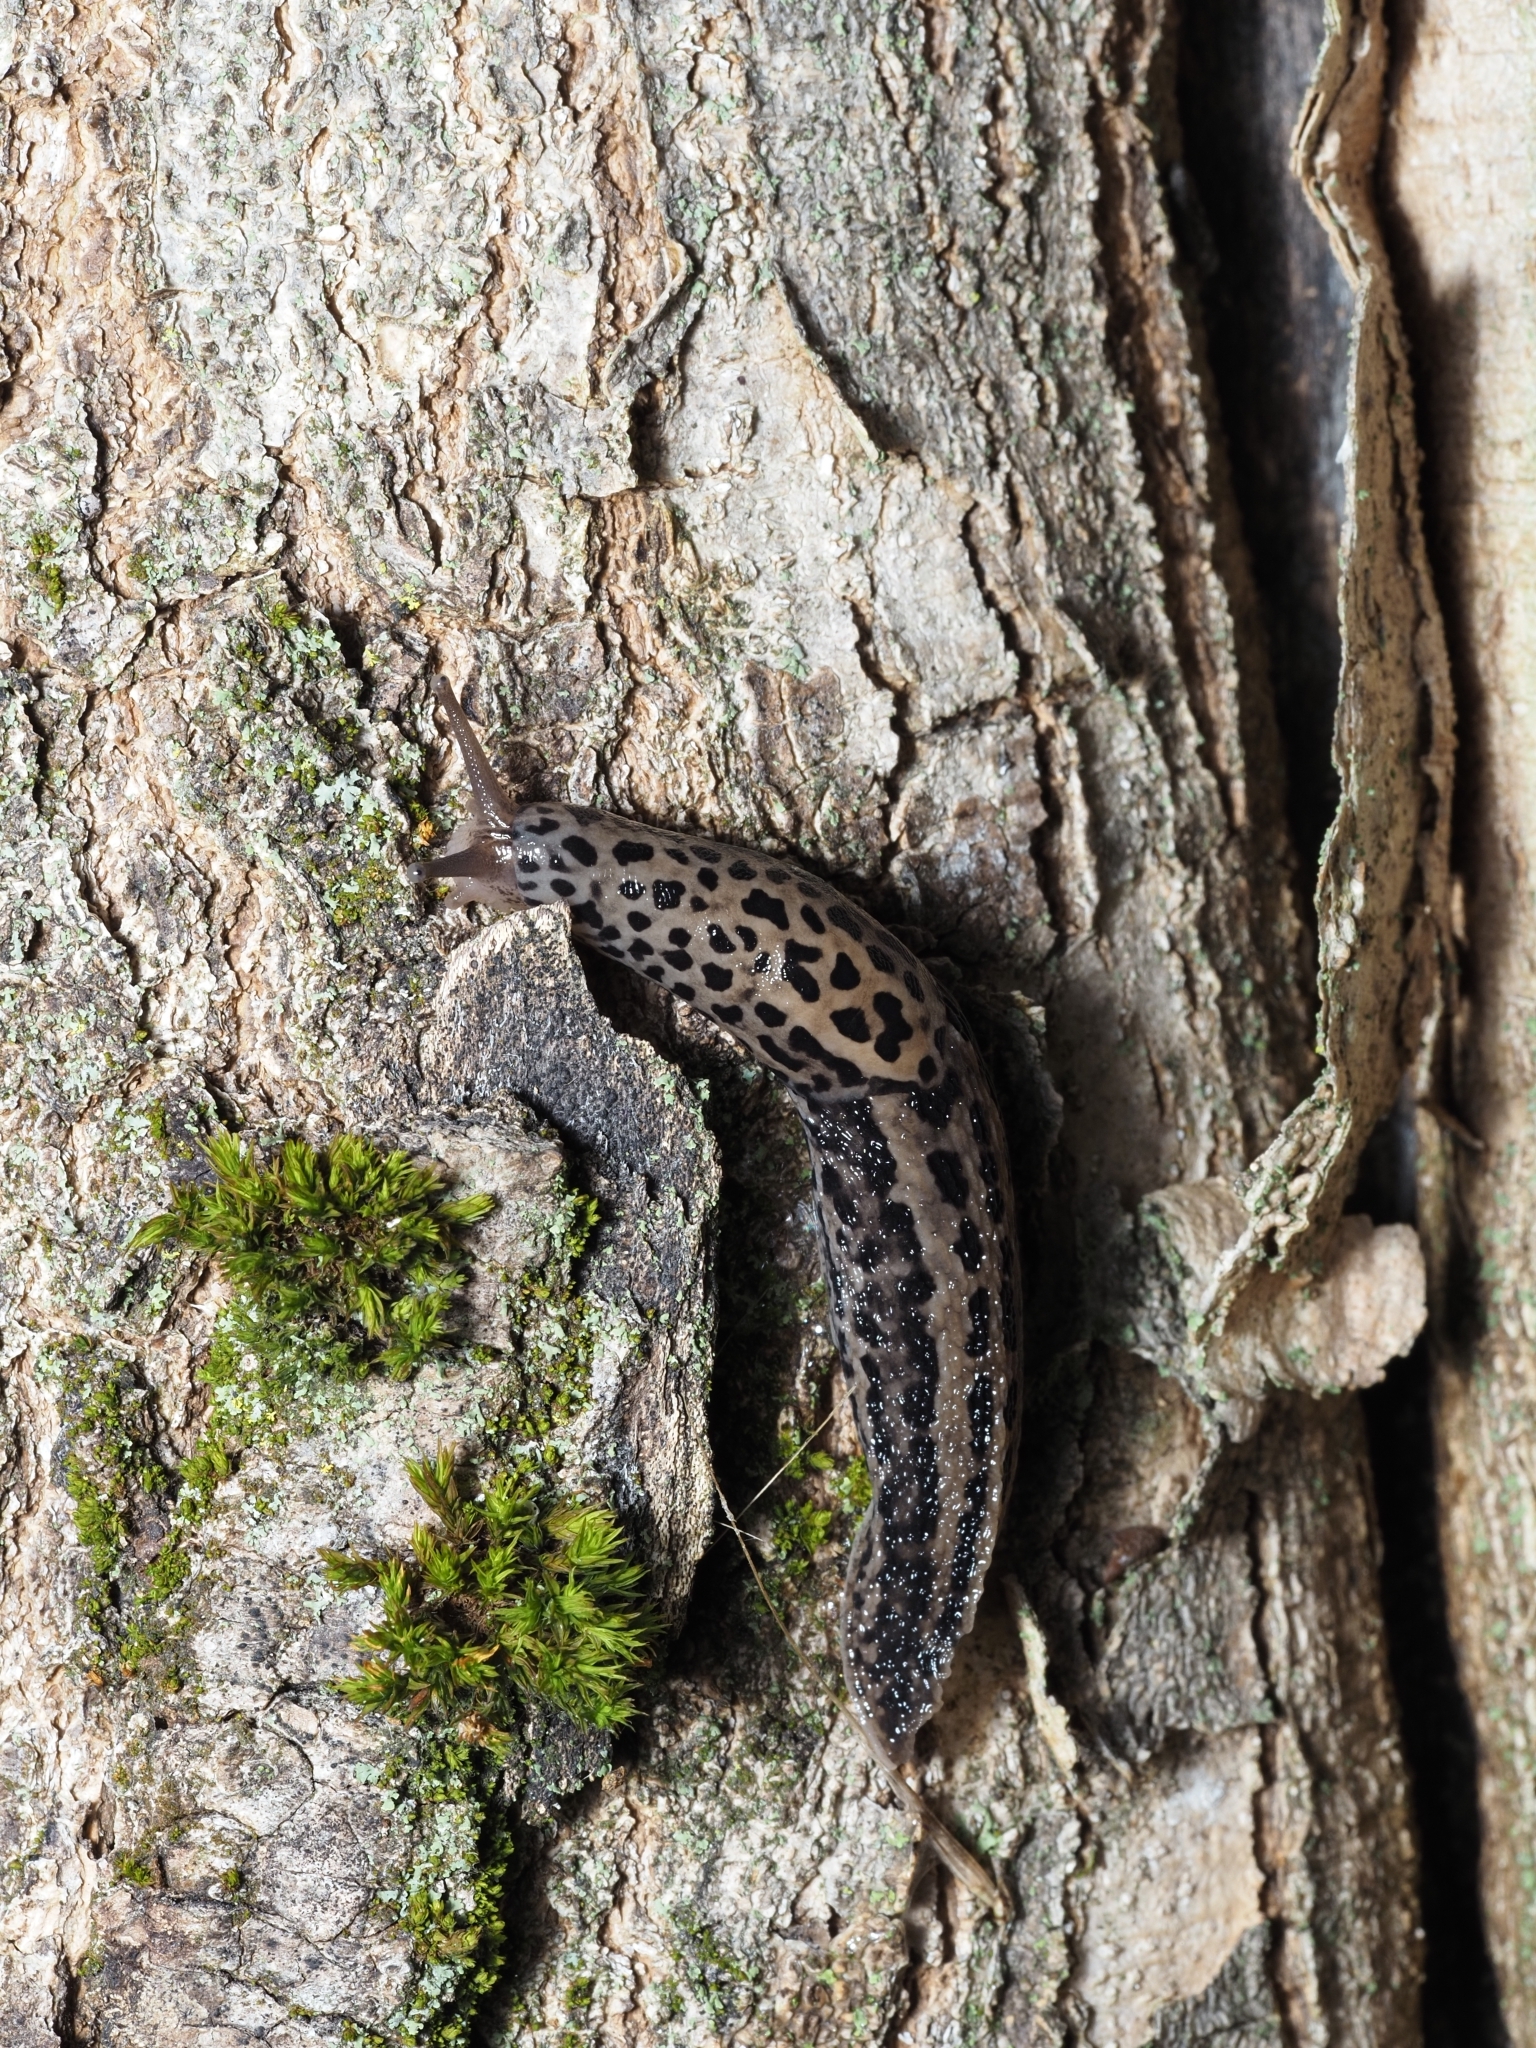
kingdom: Animalia
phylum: Mollusca
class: Gastropoda
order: Stylommatophora
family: Limacidae
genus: Limax
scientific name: Limax maximus
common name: Great grey slug
